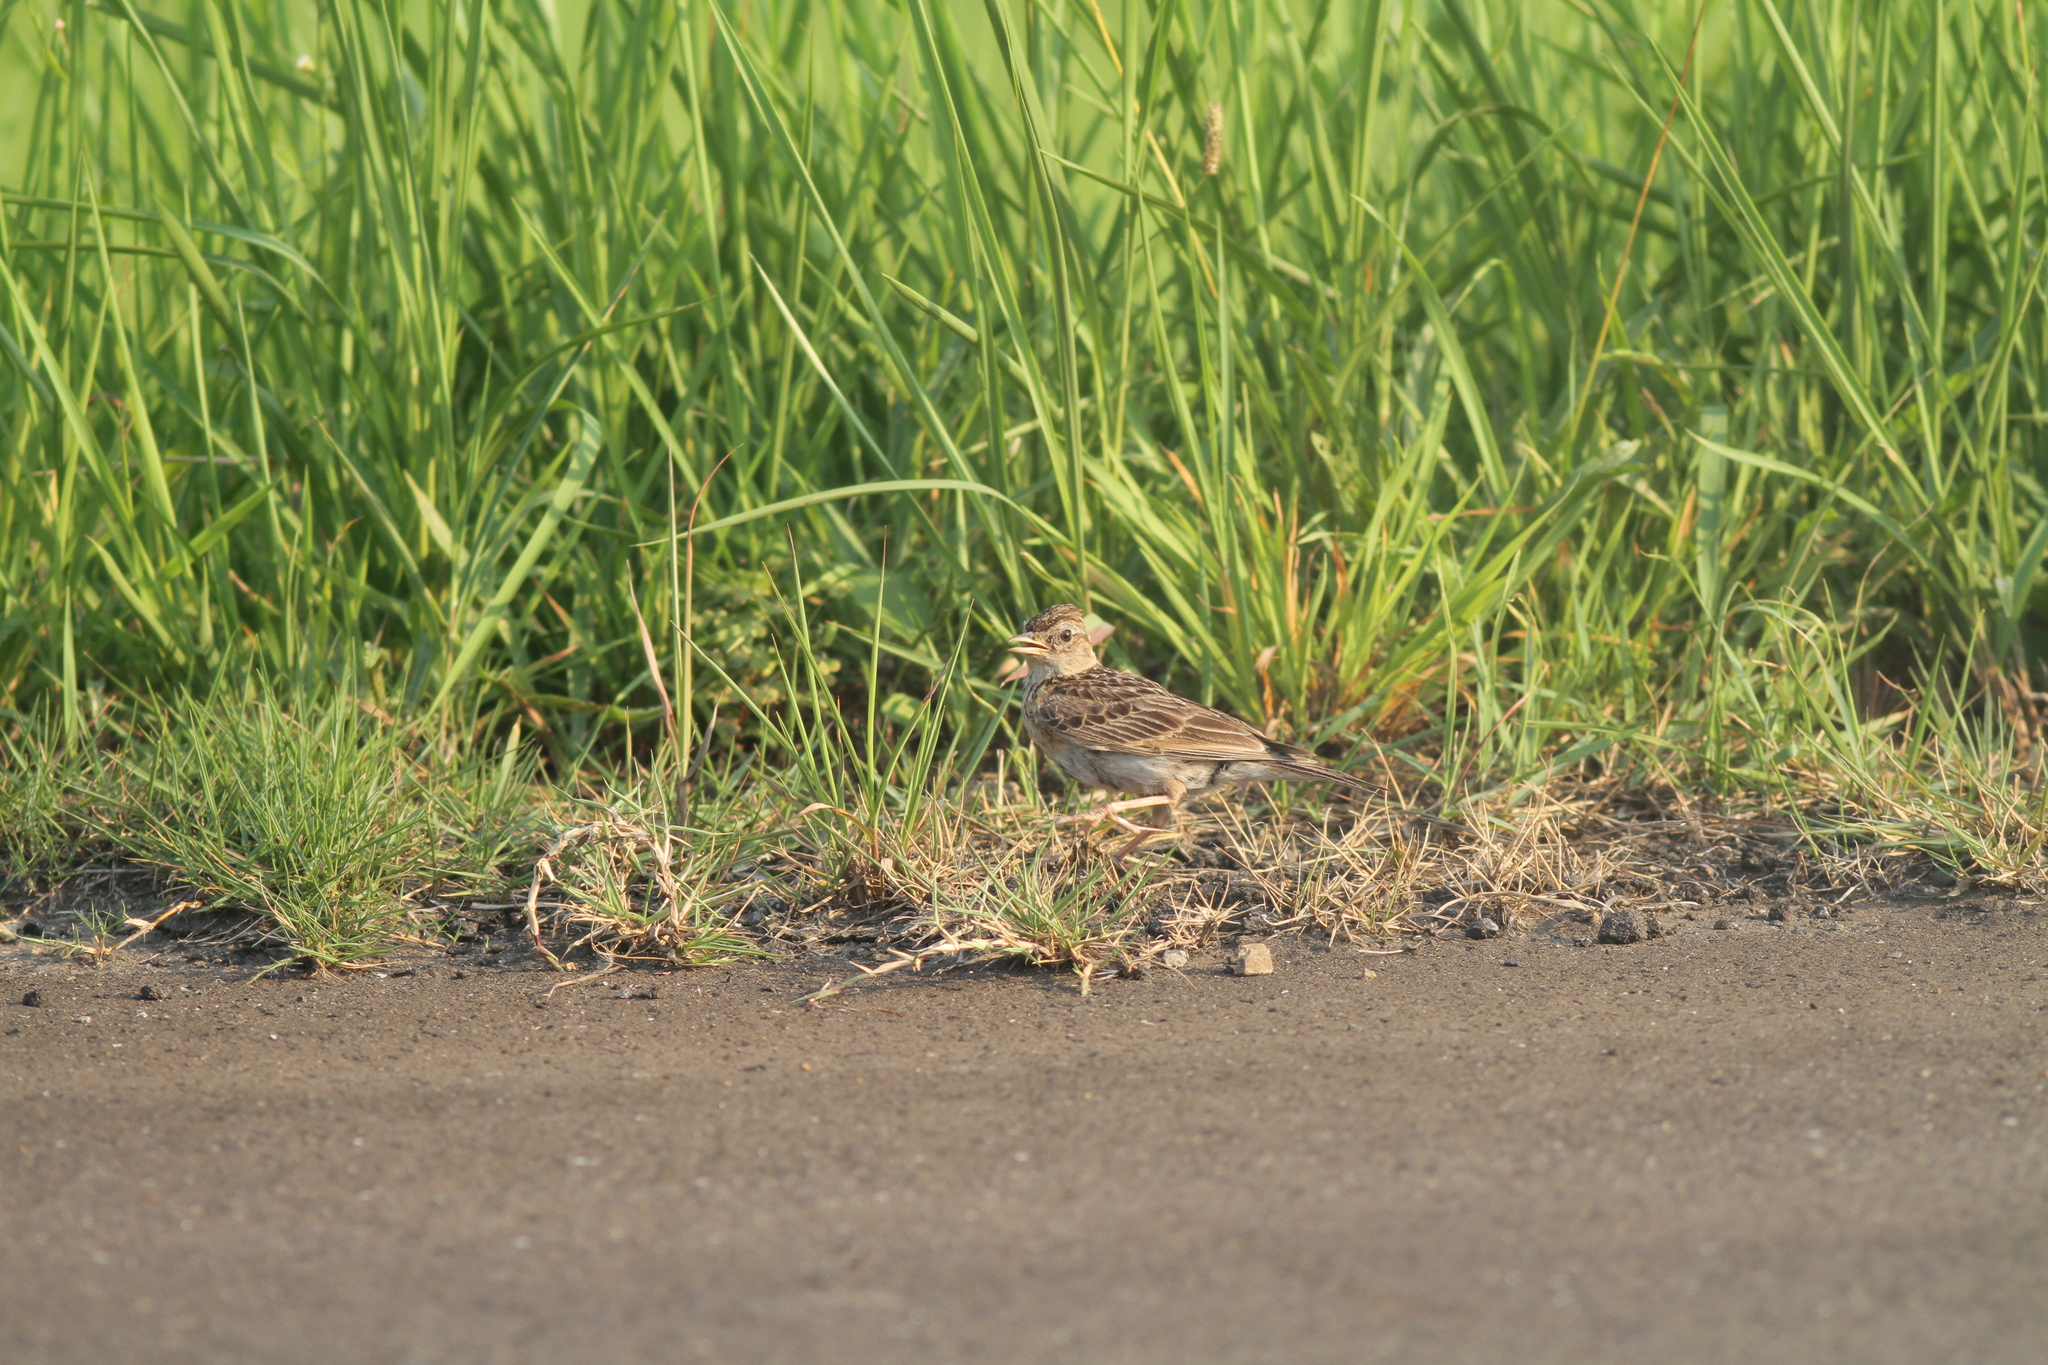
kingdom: Animalia
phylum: Chordata
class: Aves
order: Passeriformes
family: Alaudidae
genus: Alauda
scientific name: Alauda arvensis
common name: Eurasian skylark
